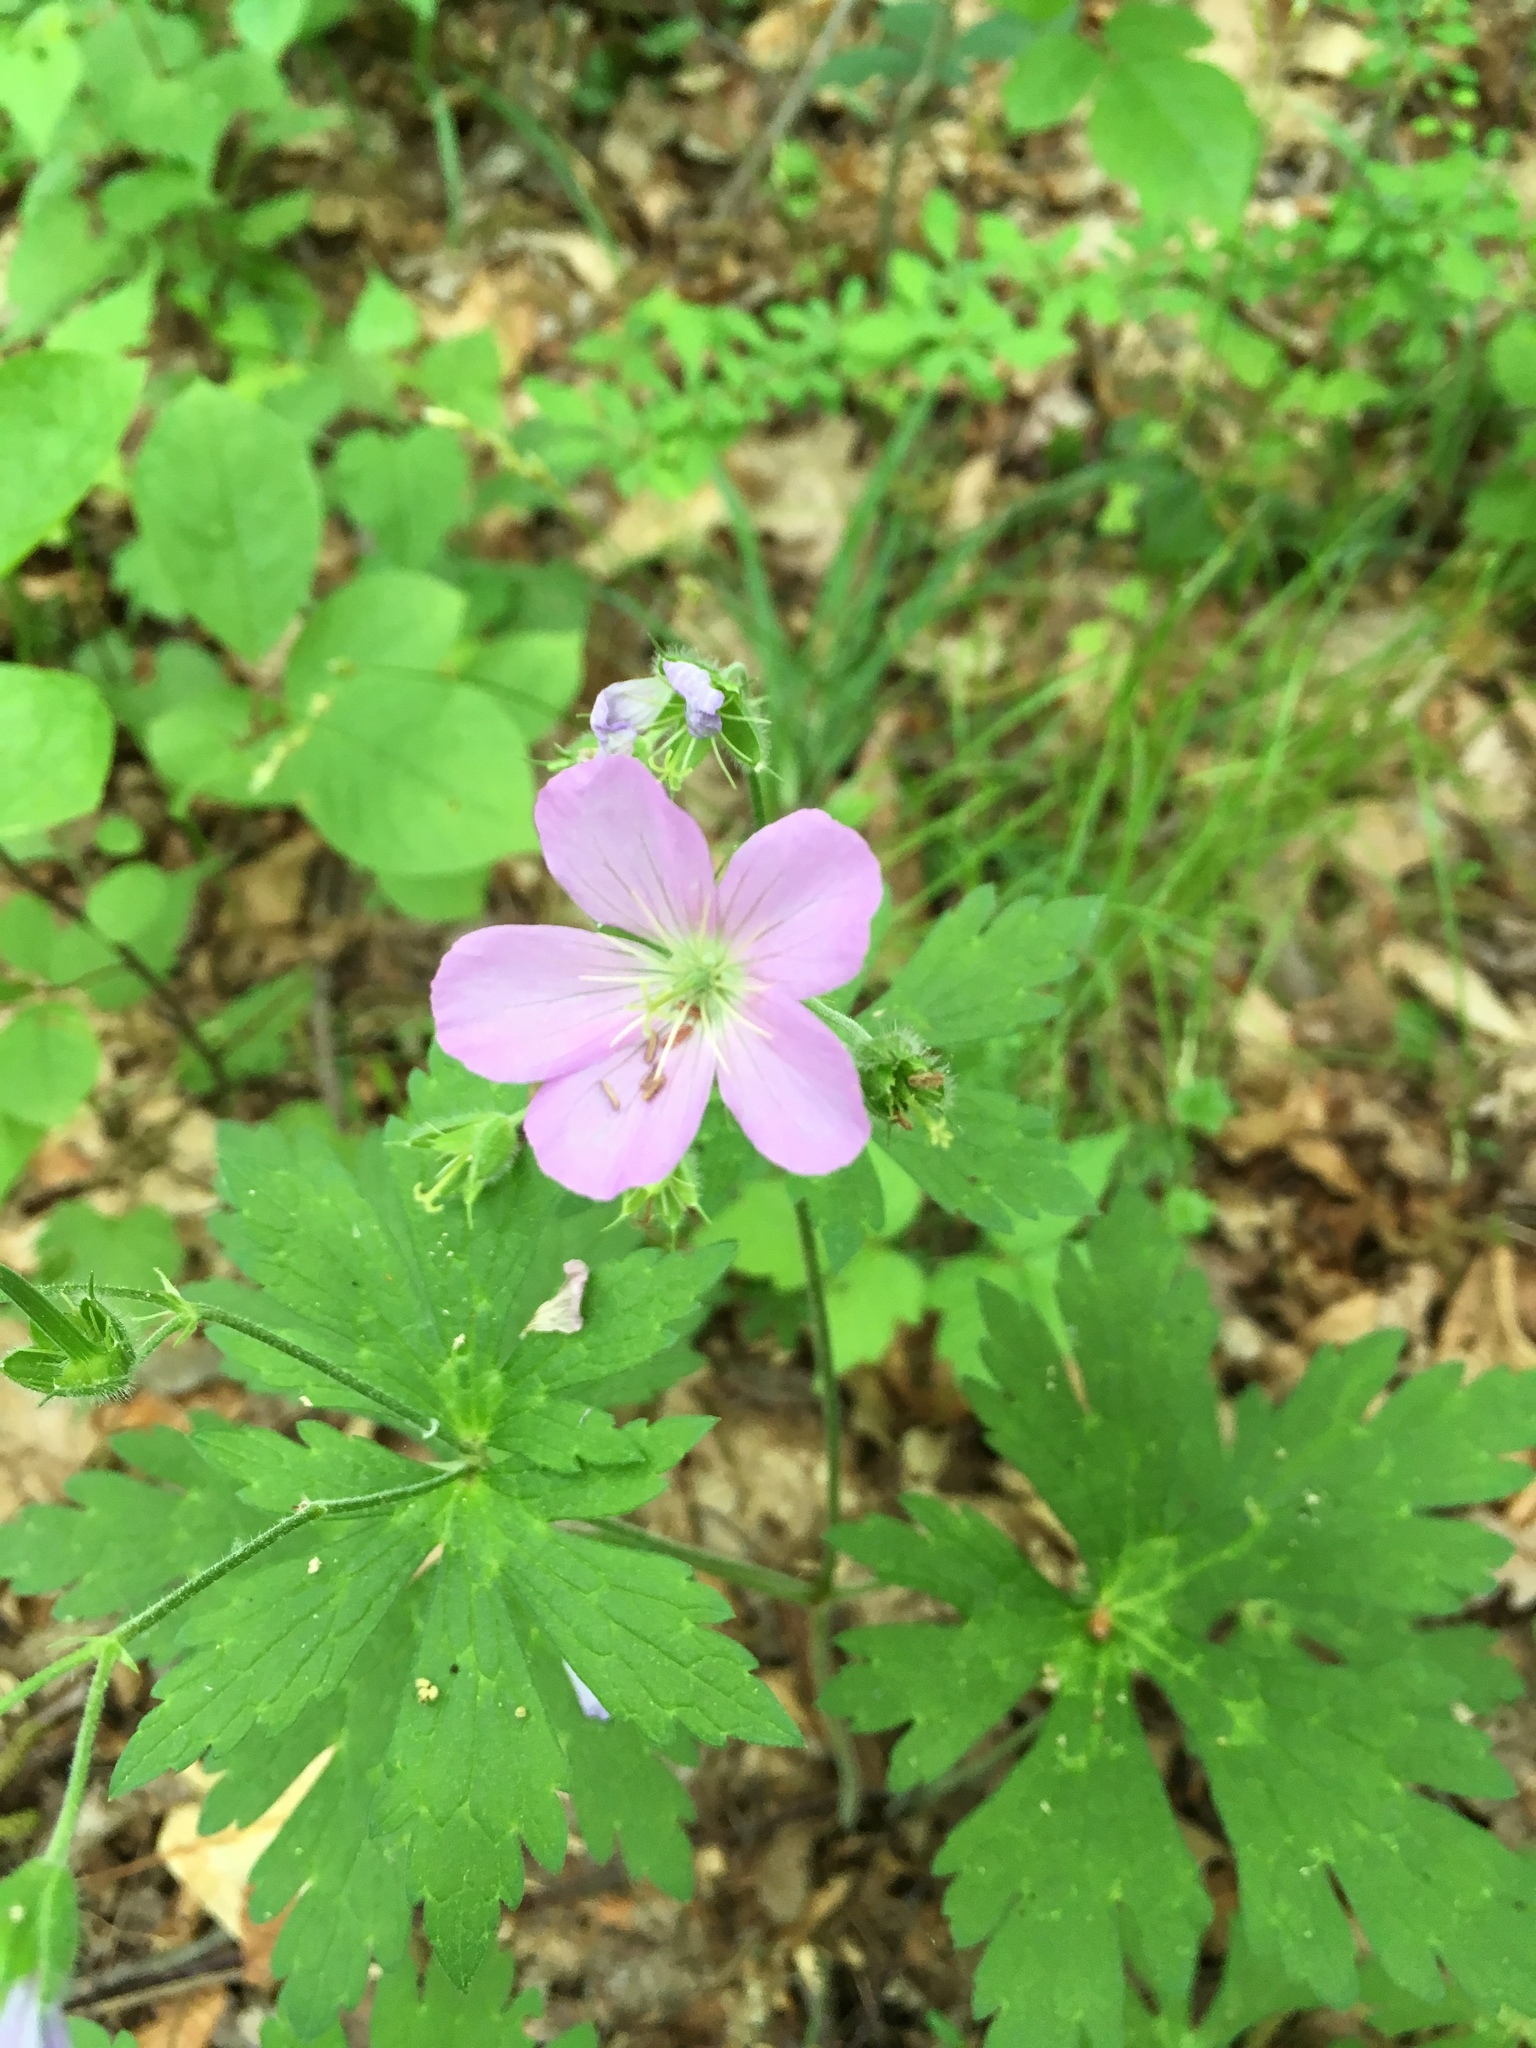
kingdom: Plantae
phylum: Tracheophyta
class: Magnoliopsida
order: Geraniales
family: Geraniaceae
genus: Geranium
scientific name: Geranium maculatum
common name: Spotted geranium
